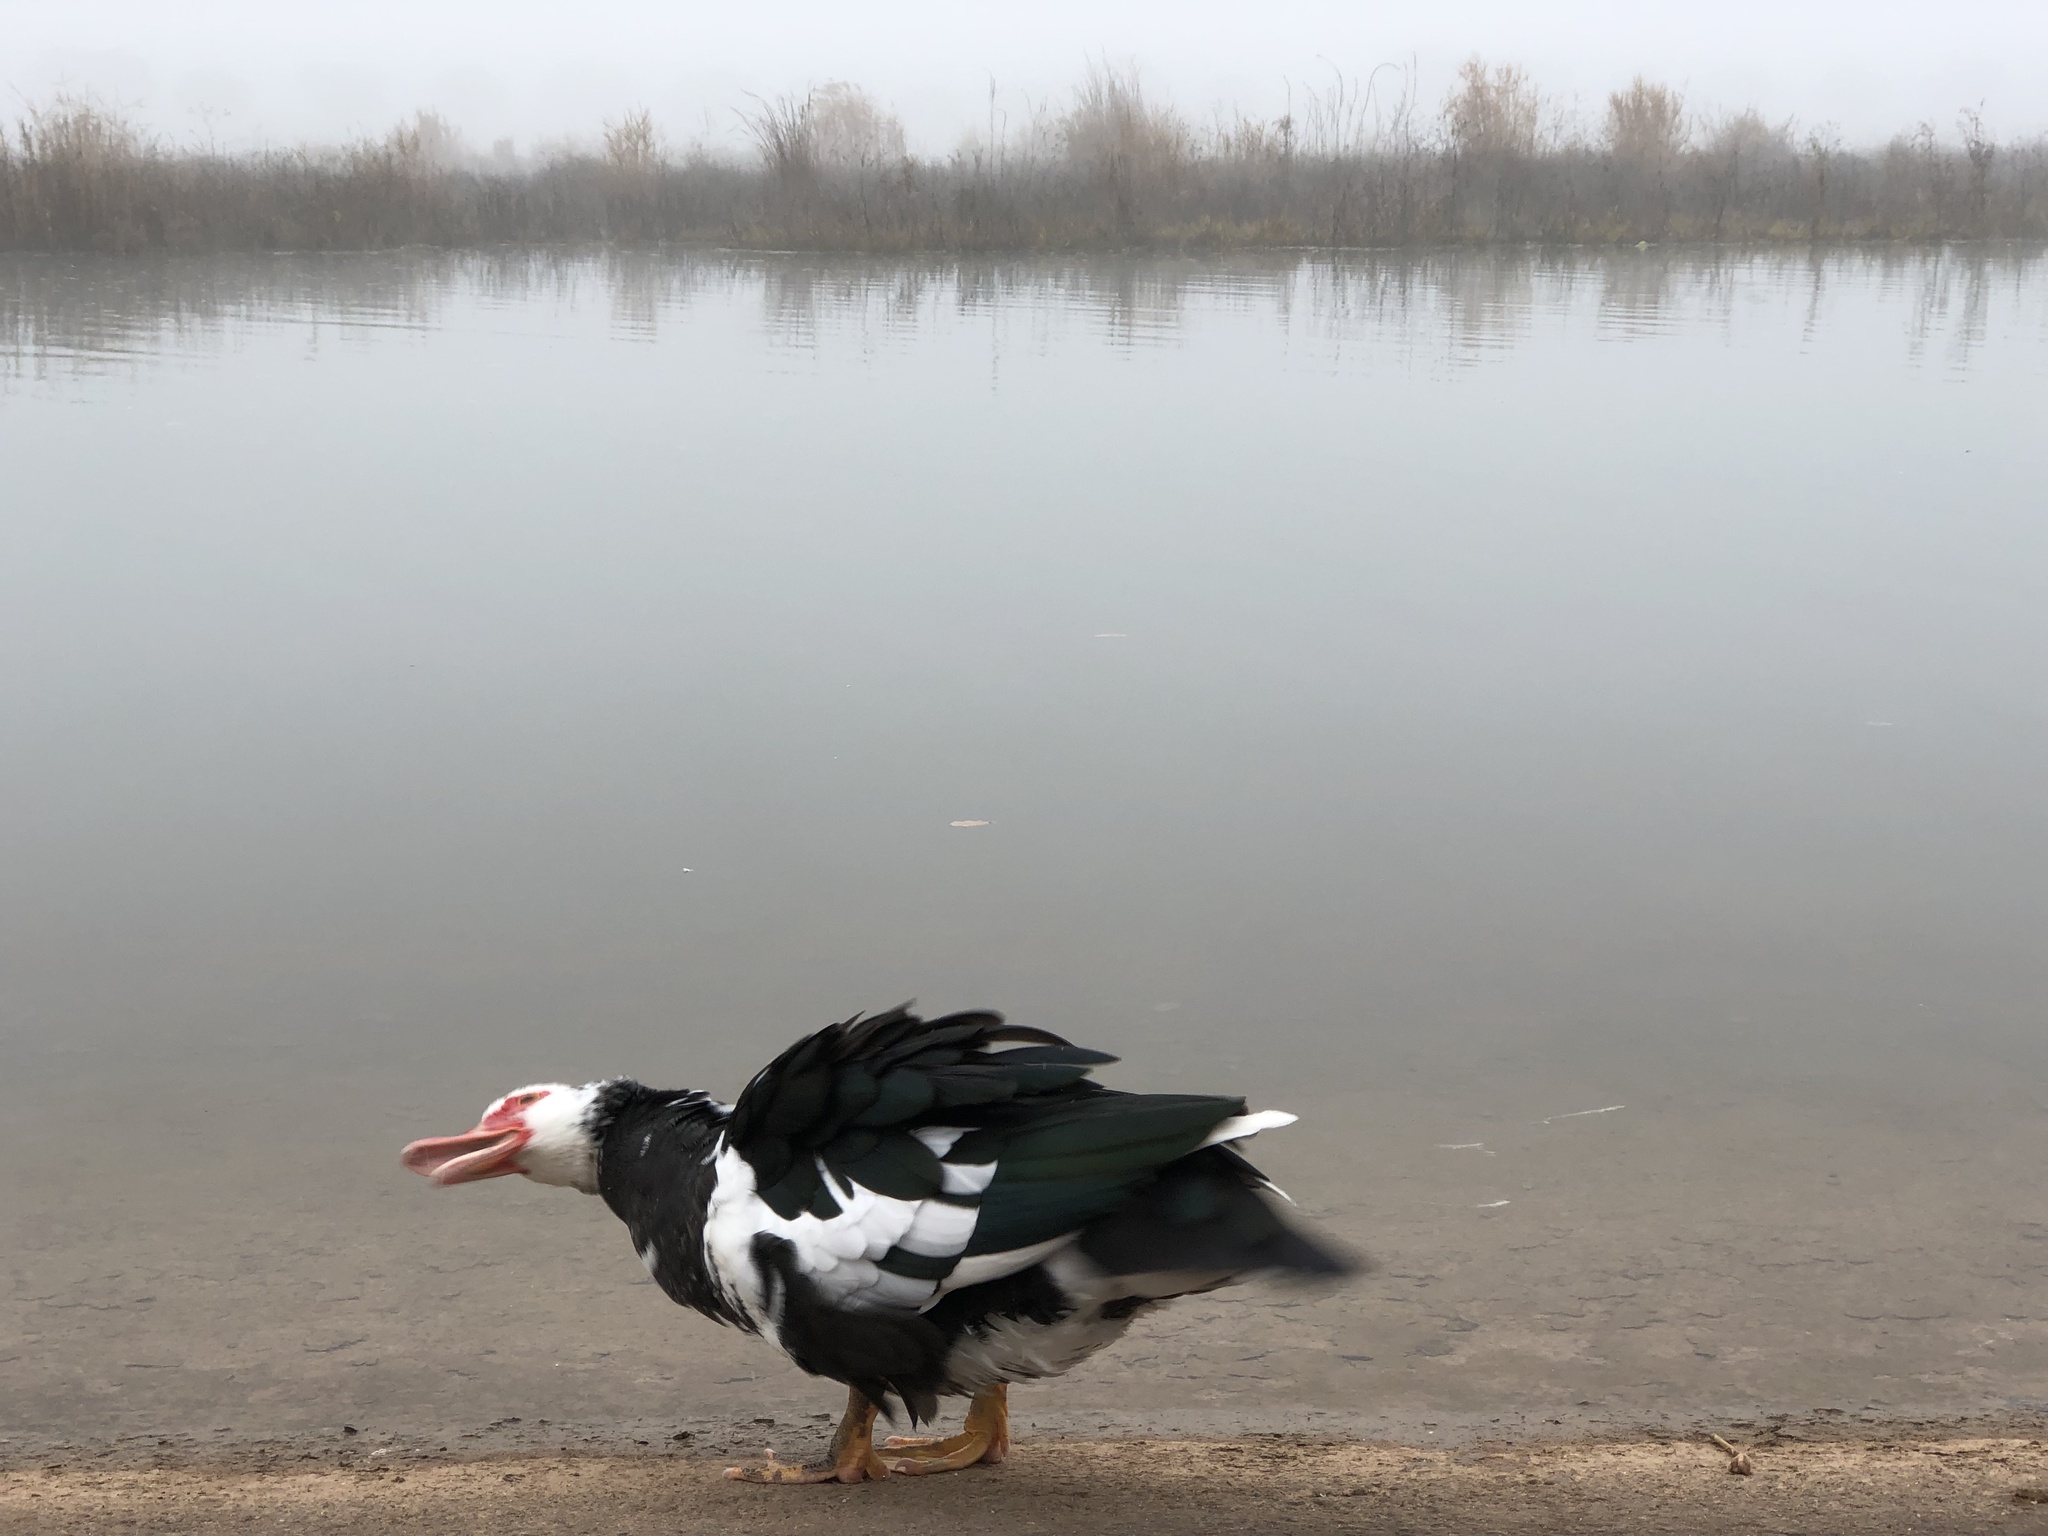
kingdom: Animalia
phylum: Chordata
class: Aves
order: Anseriformes
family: Anatidae
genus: Cairina
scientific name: Cairina moschata
